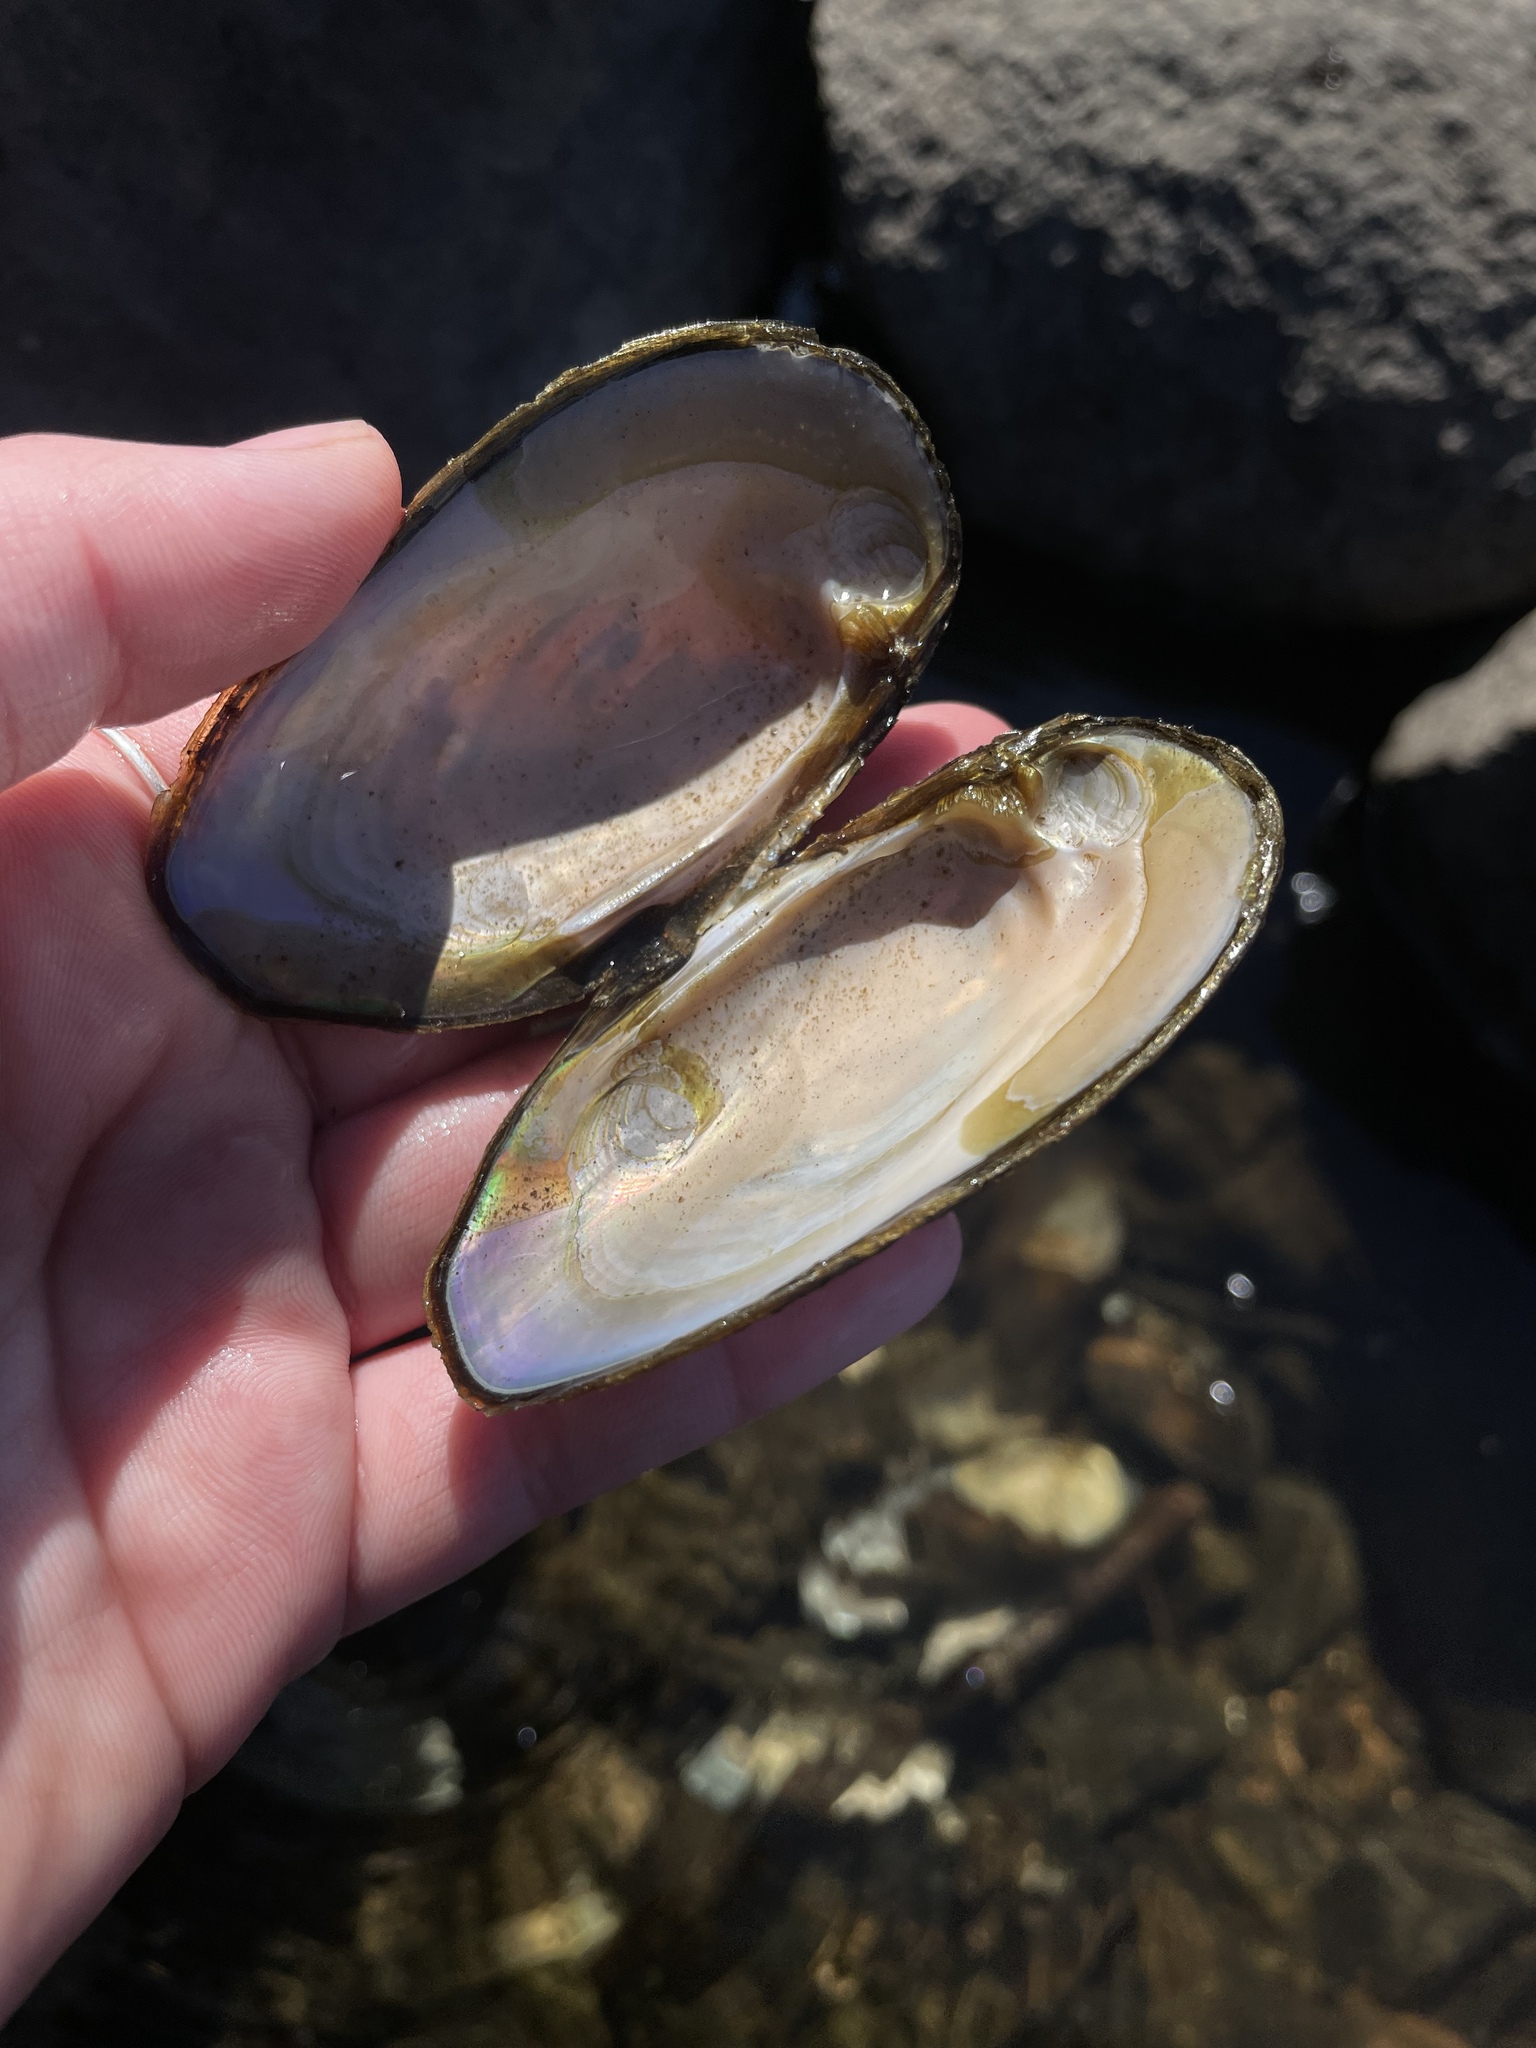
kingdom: Animalia
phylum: Mollusca
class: Bivalvia
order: Unionida
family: Unionidae
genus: Elliptio
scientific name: Elliptio complanata
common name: Eastern elliptio
